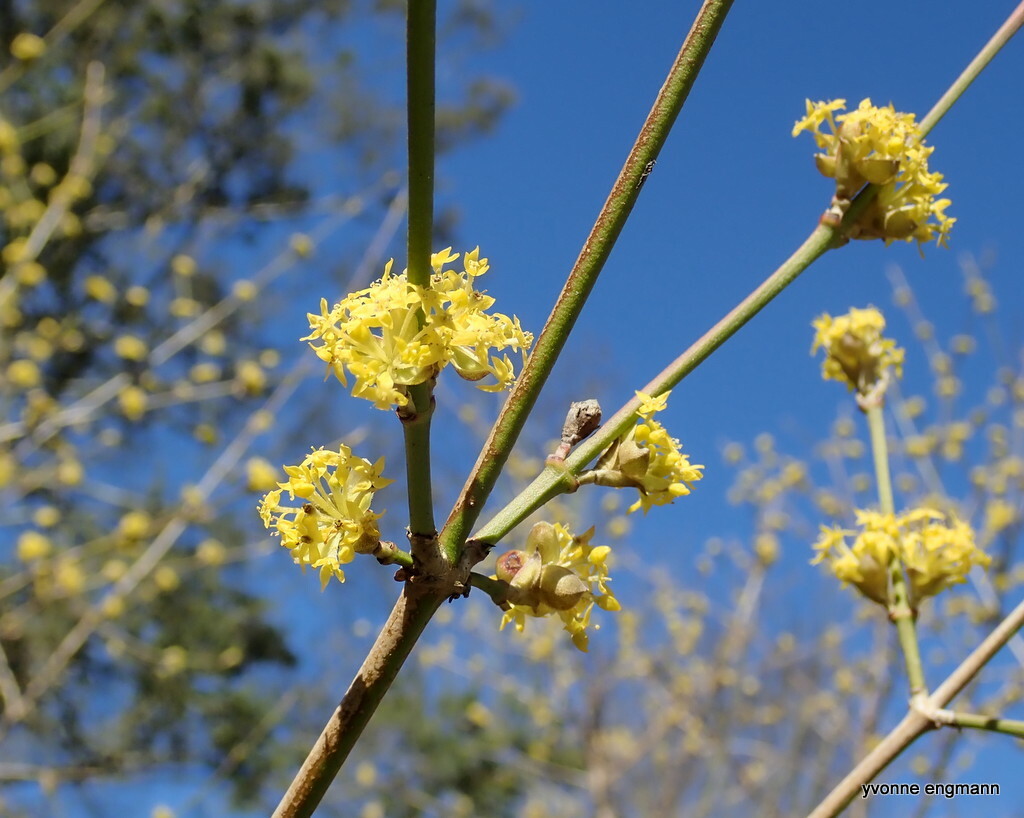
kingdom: Plantae
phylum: Tracheophyta
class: Magnoliopsida
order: Cornales
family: Cornaceae
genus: Cornus
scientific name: Cornus mas
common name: Cornelian-cherry
